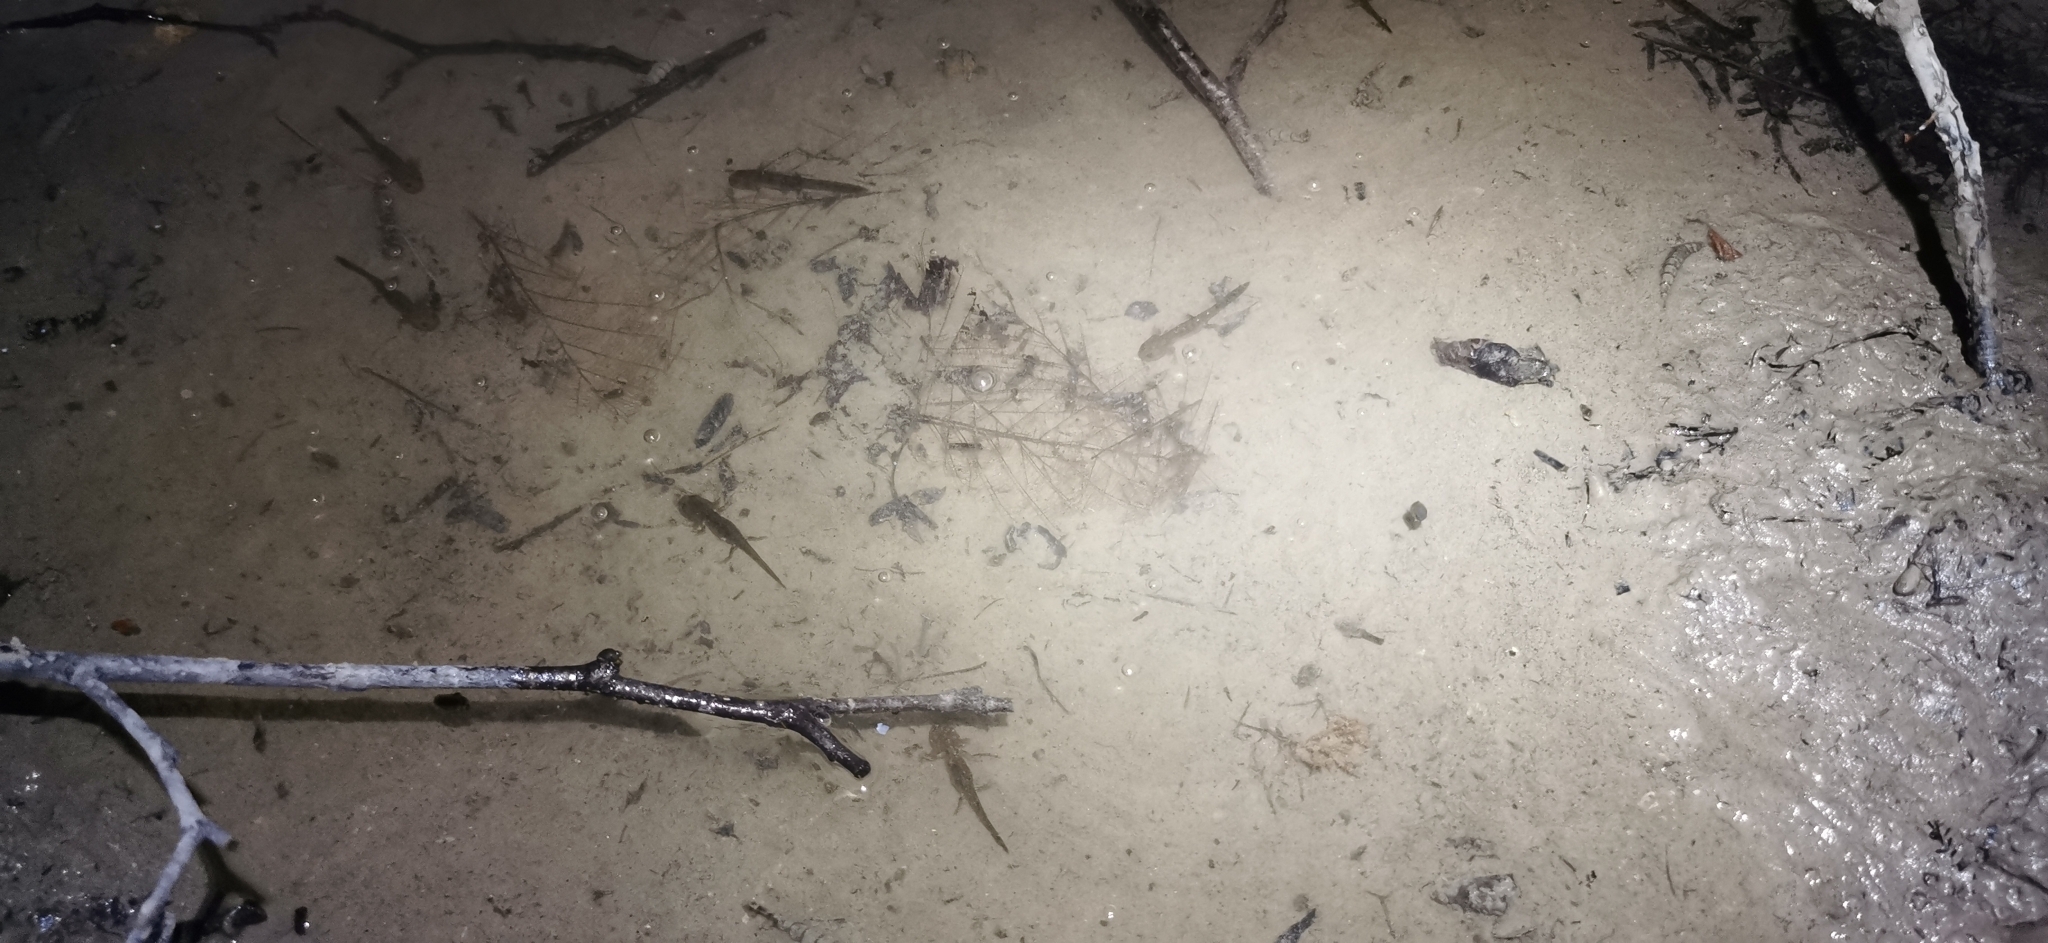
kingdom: Animalia
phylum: Chordata
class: Amphibia
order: Caudata
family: Salamandridae
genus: Salamandra
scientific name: Salamandra salamandra
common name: Fire salamander
